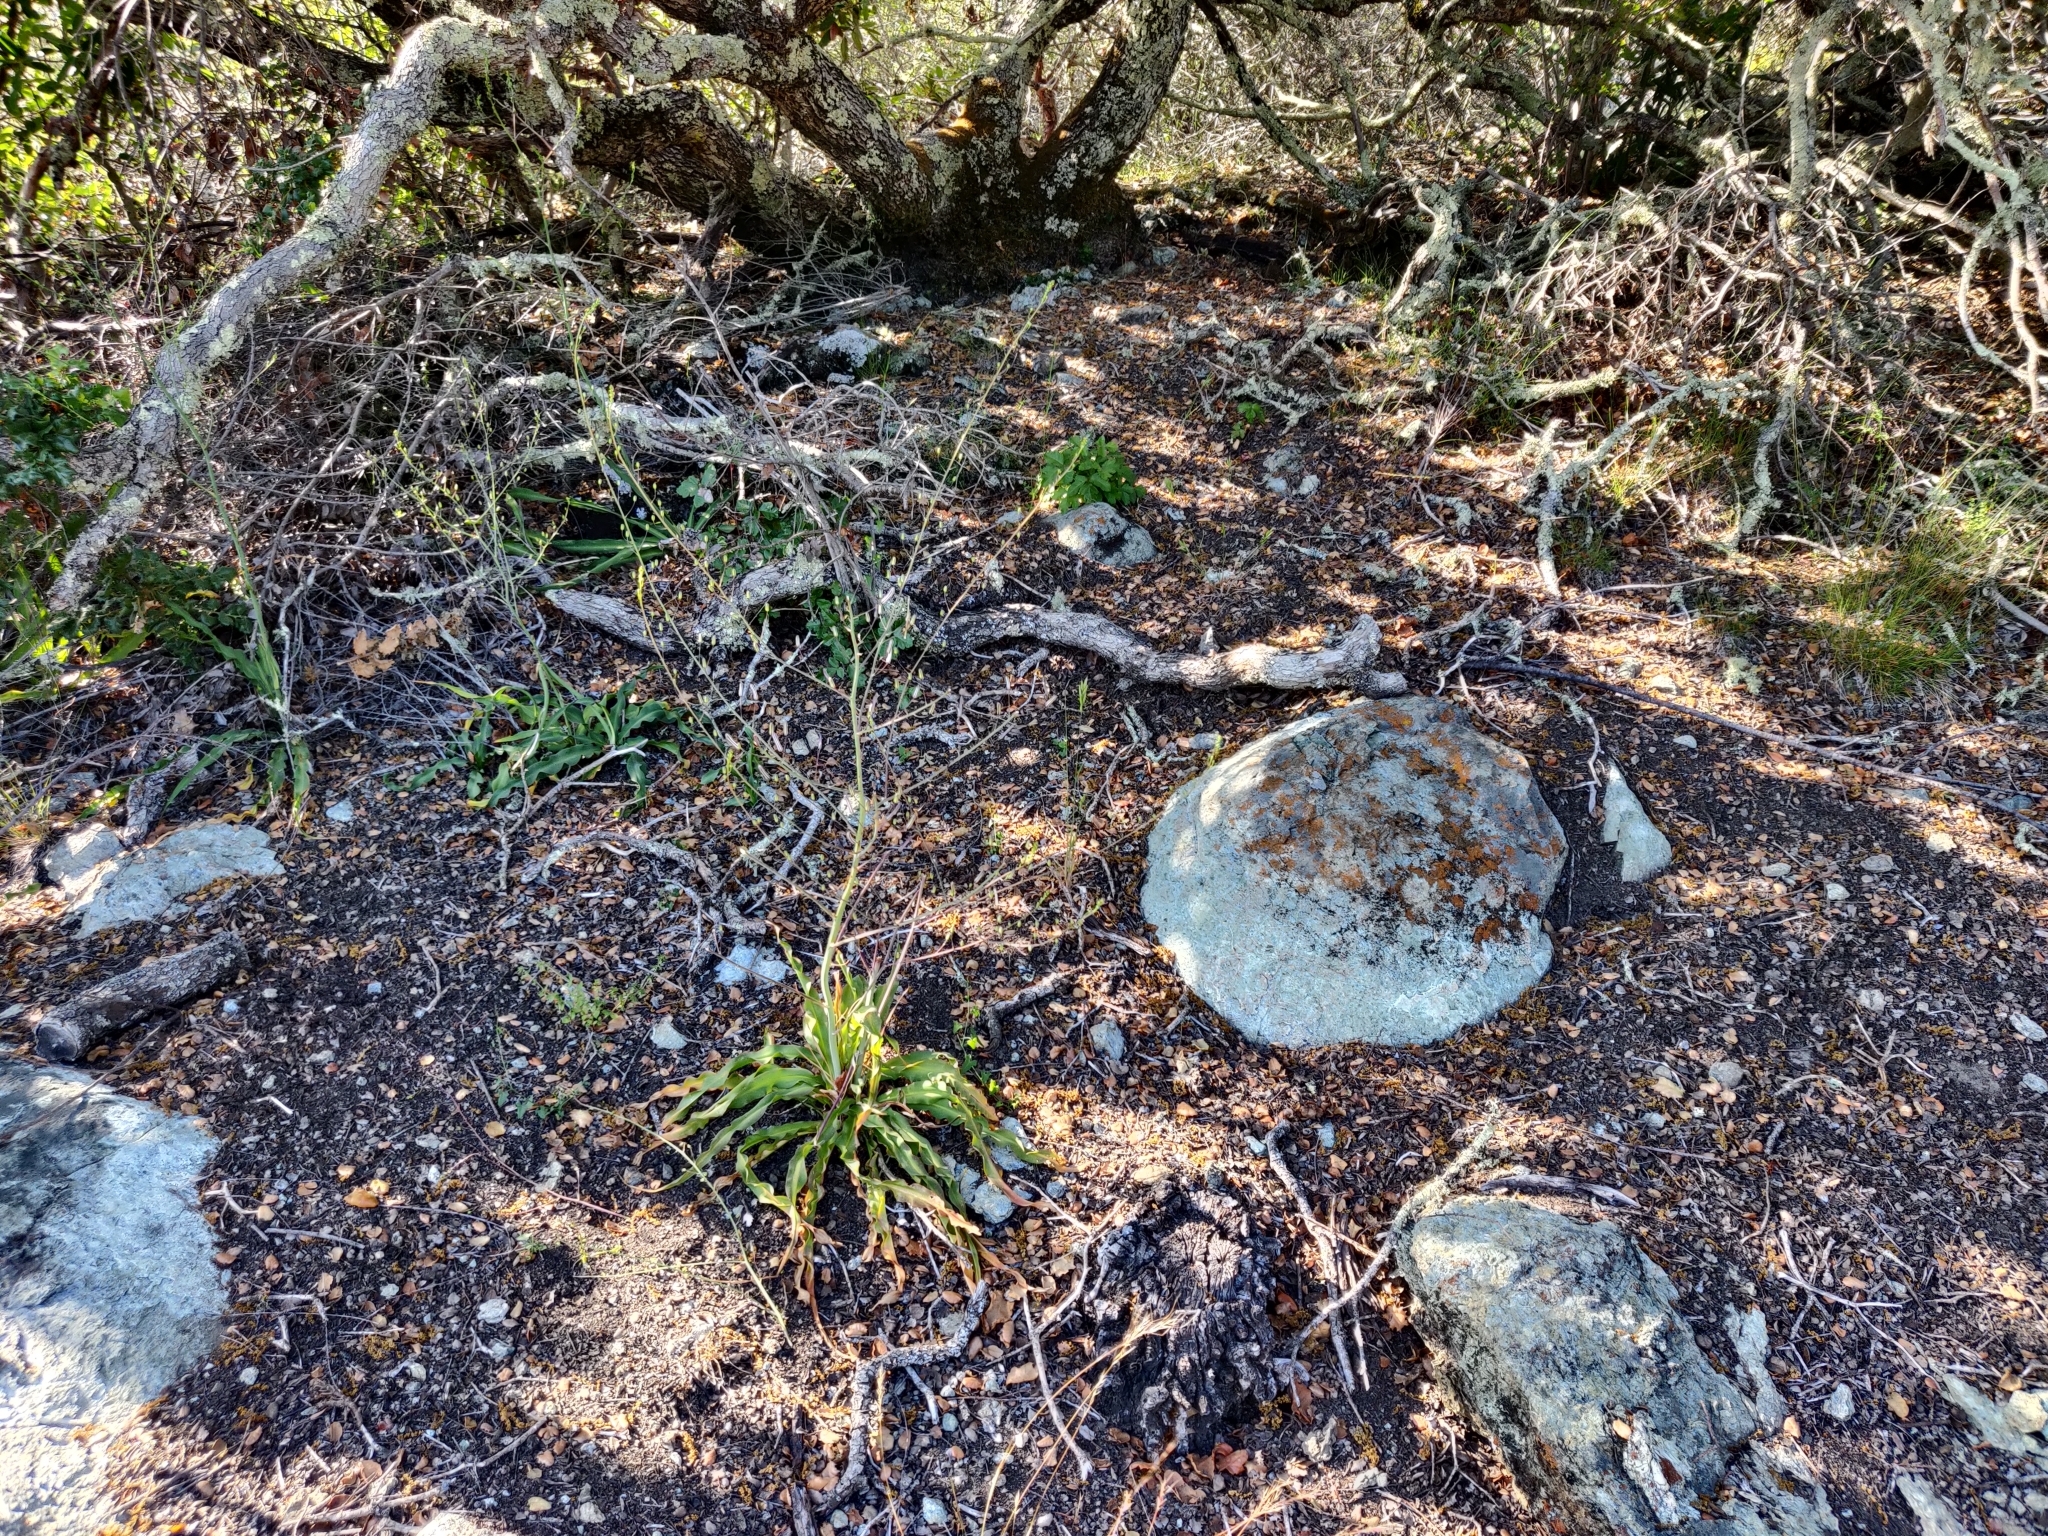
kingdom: Plantae
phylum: Tracheophyta
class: Liliopsida
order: Asparagales
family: Asparagaceae
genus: Chlorogalum
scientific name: Chlorogalum pomeridianum
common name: Amole
